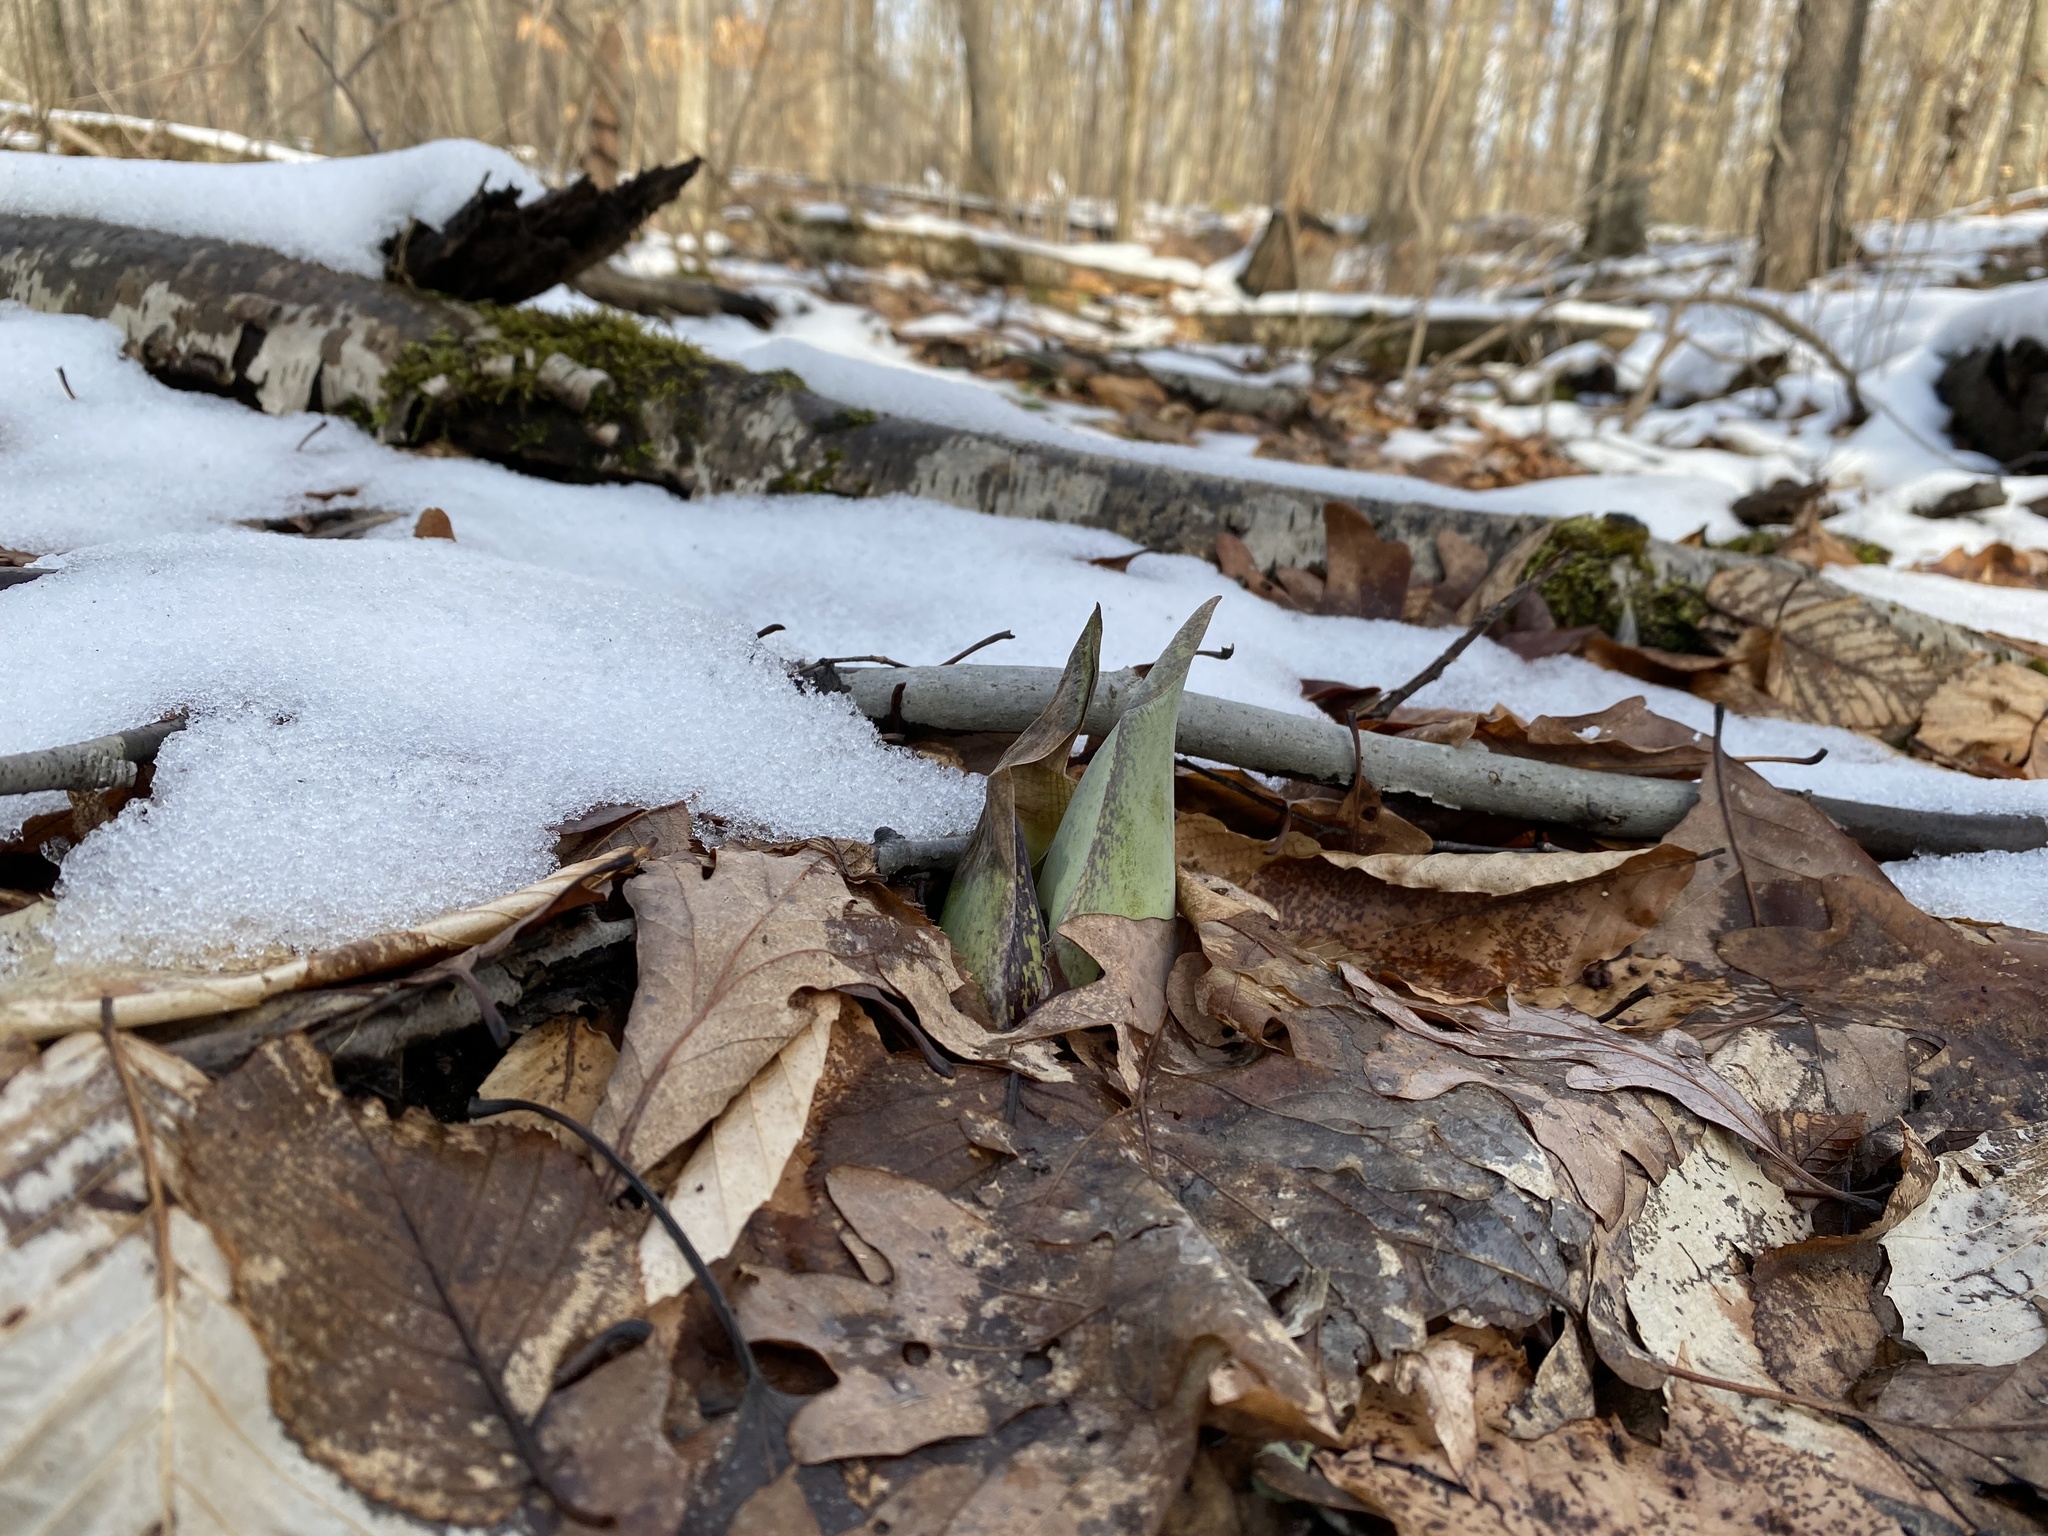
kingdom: Plantae
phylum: Tracheophyta
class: Liliopsida
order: Alismatales
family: Araceae
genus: Symplocarpus
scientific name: Symplocarpus foetidus
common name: Eastern skunk cabbage
